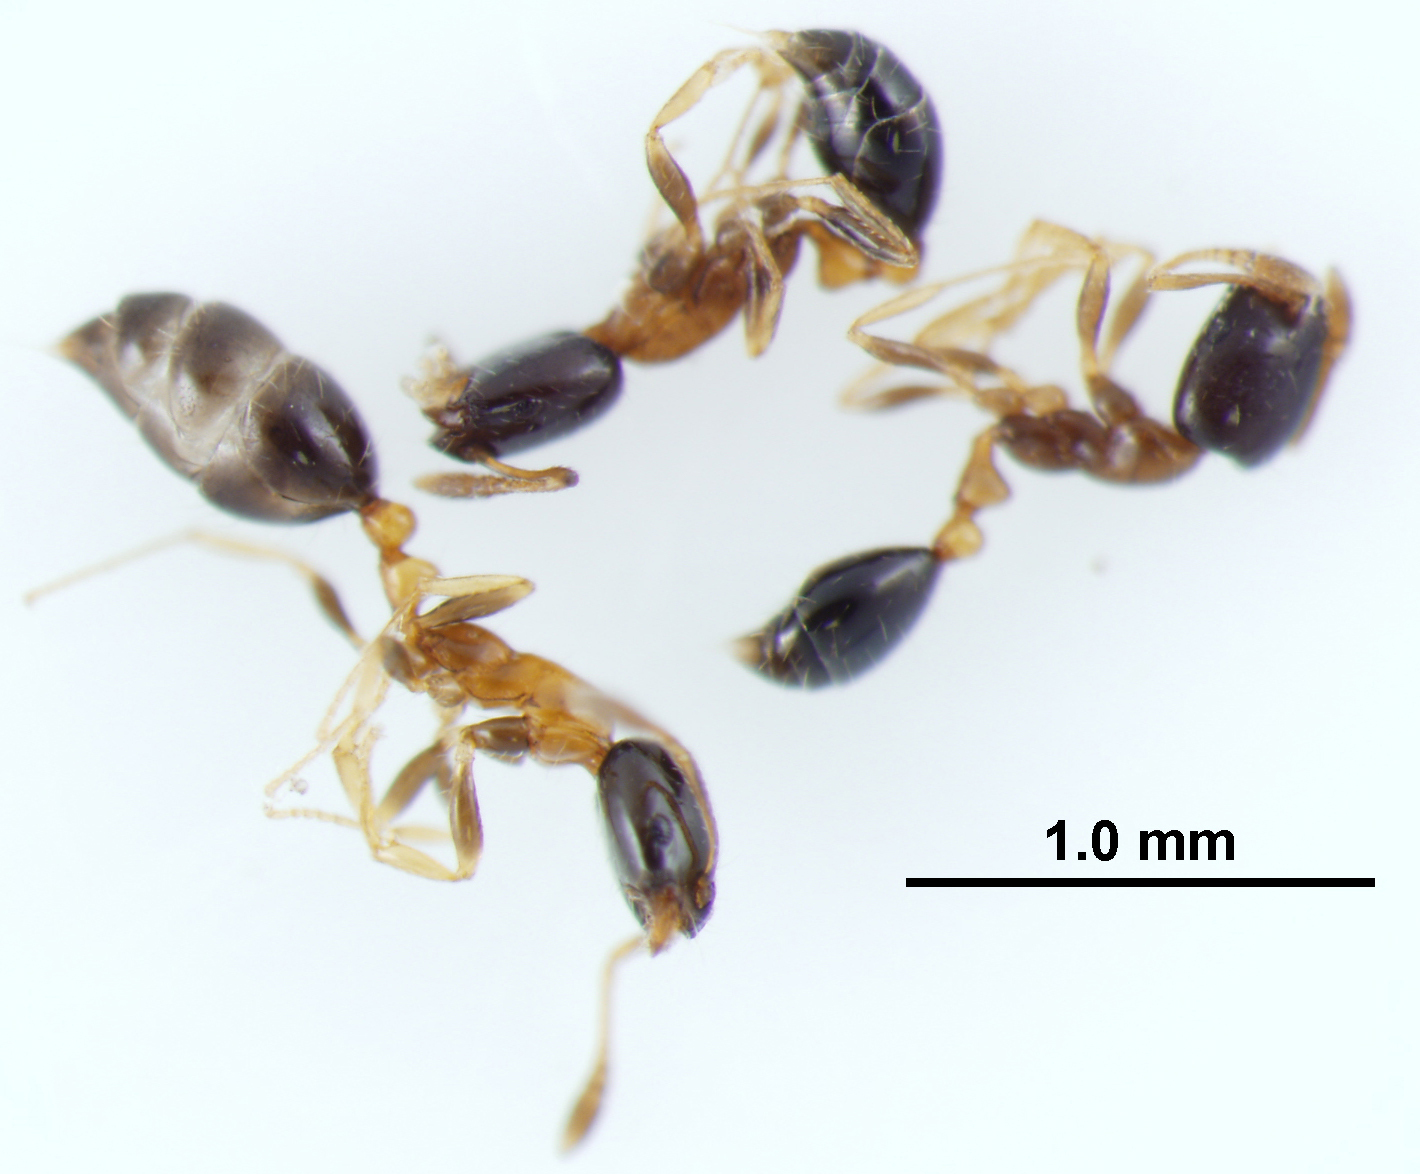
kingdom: Animalia
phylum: Arthropoda
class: Insecta
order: Hymenoptera
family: Formicidae
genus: Monomorium
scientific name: Monomorium floricola
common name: Bicolored trailing ant
